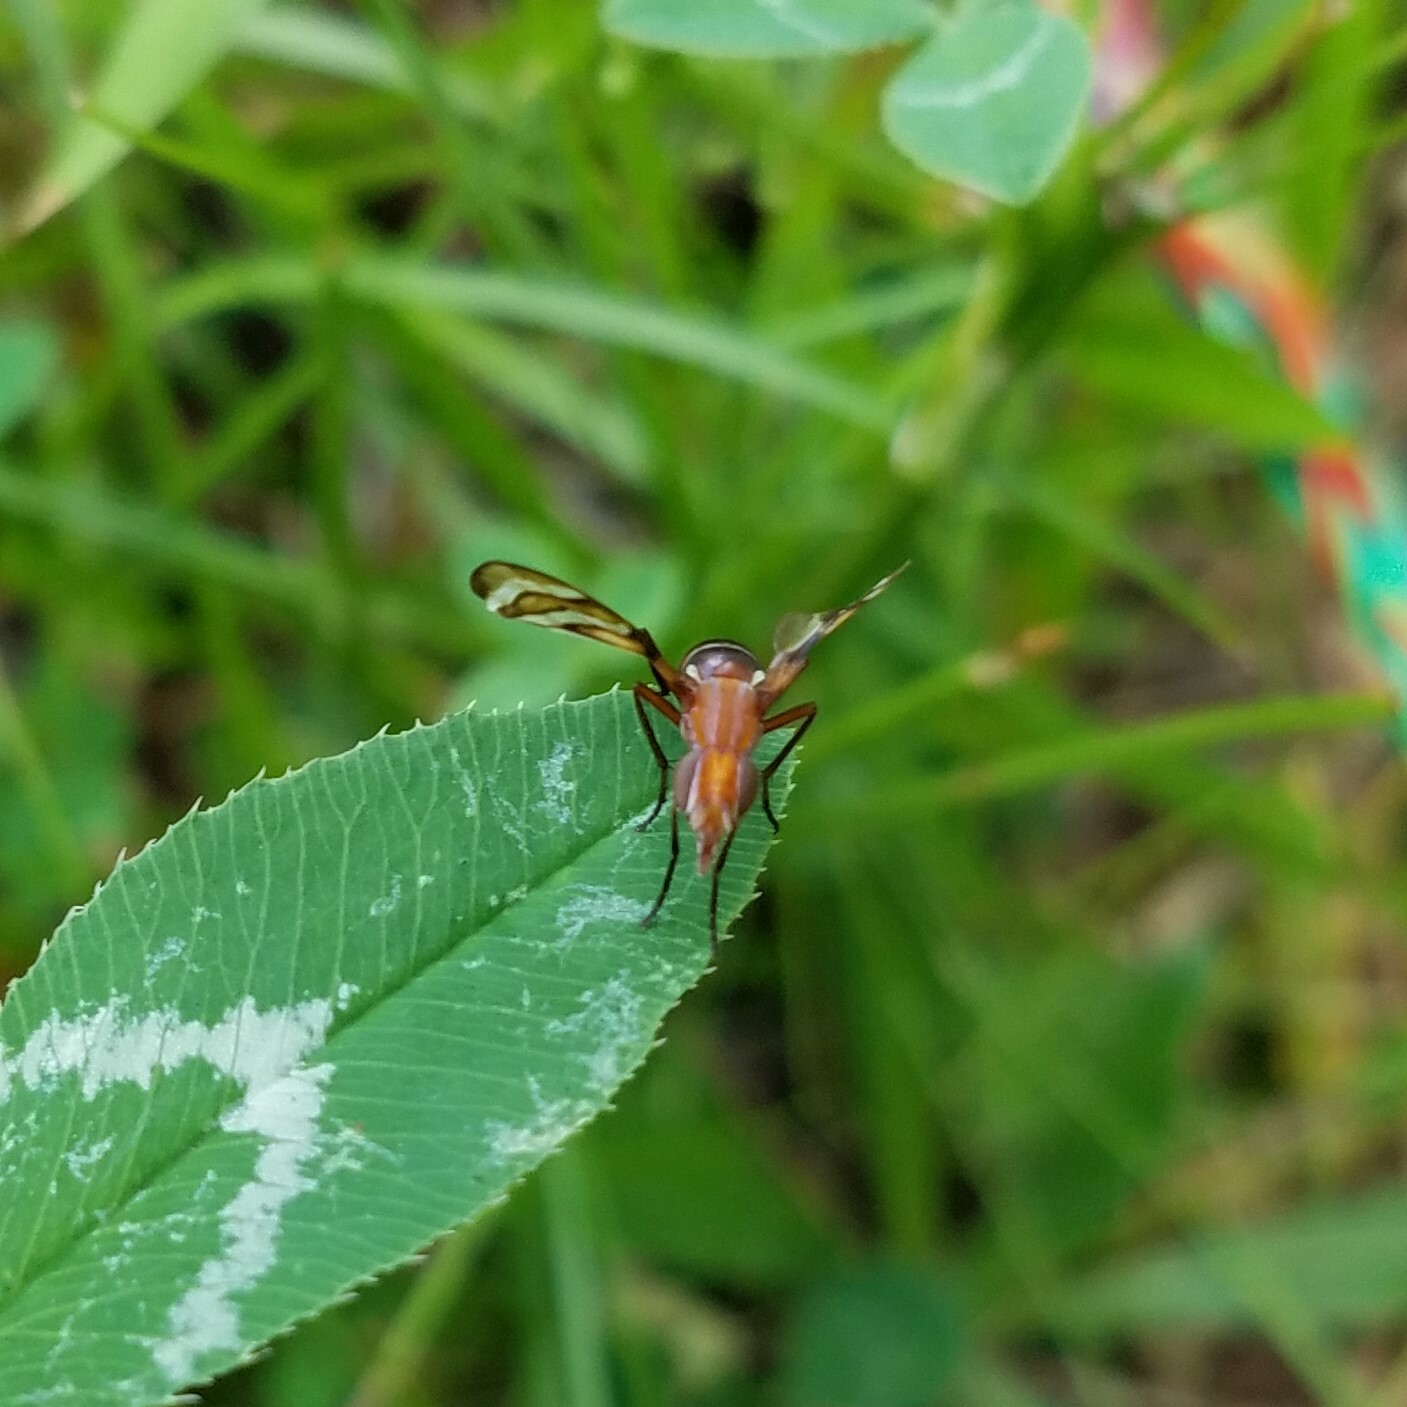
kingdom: Animalia
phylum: Arthropoda
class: Insecta
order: Diptera
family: Ulidiidae
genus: Tritoxa
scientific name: Tritoxa incurva
